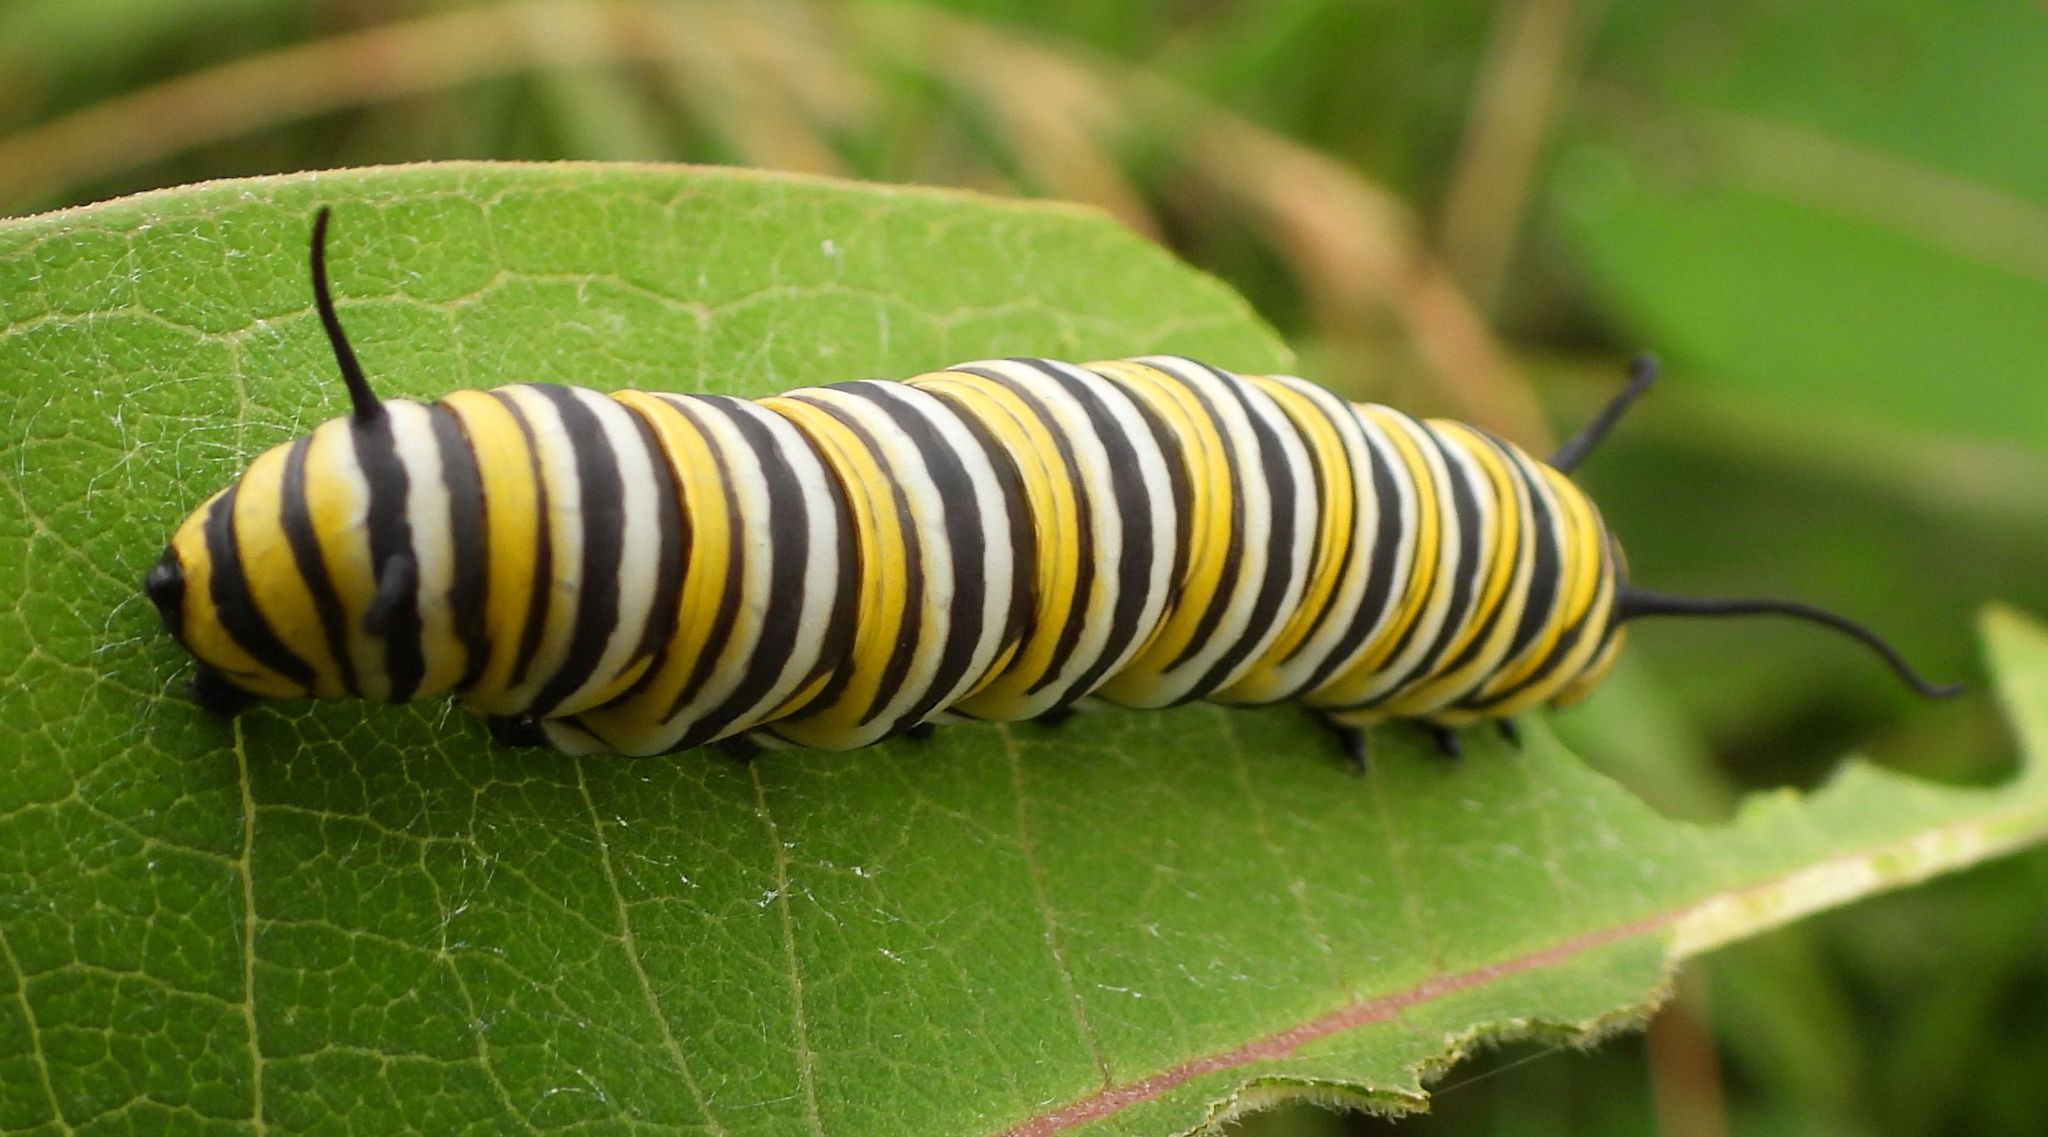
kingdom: Animalia
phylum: Arthropoda
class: Insecta
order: Lepidoptera
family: Nymphalidae
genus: Danaus
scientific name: Danaus plexippus
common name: Monarch
